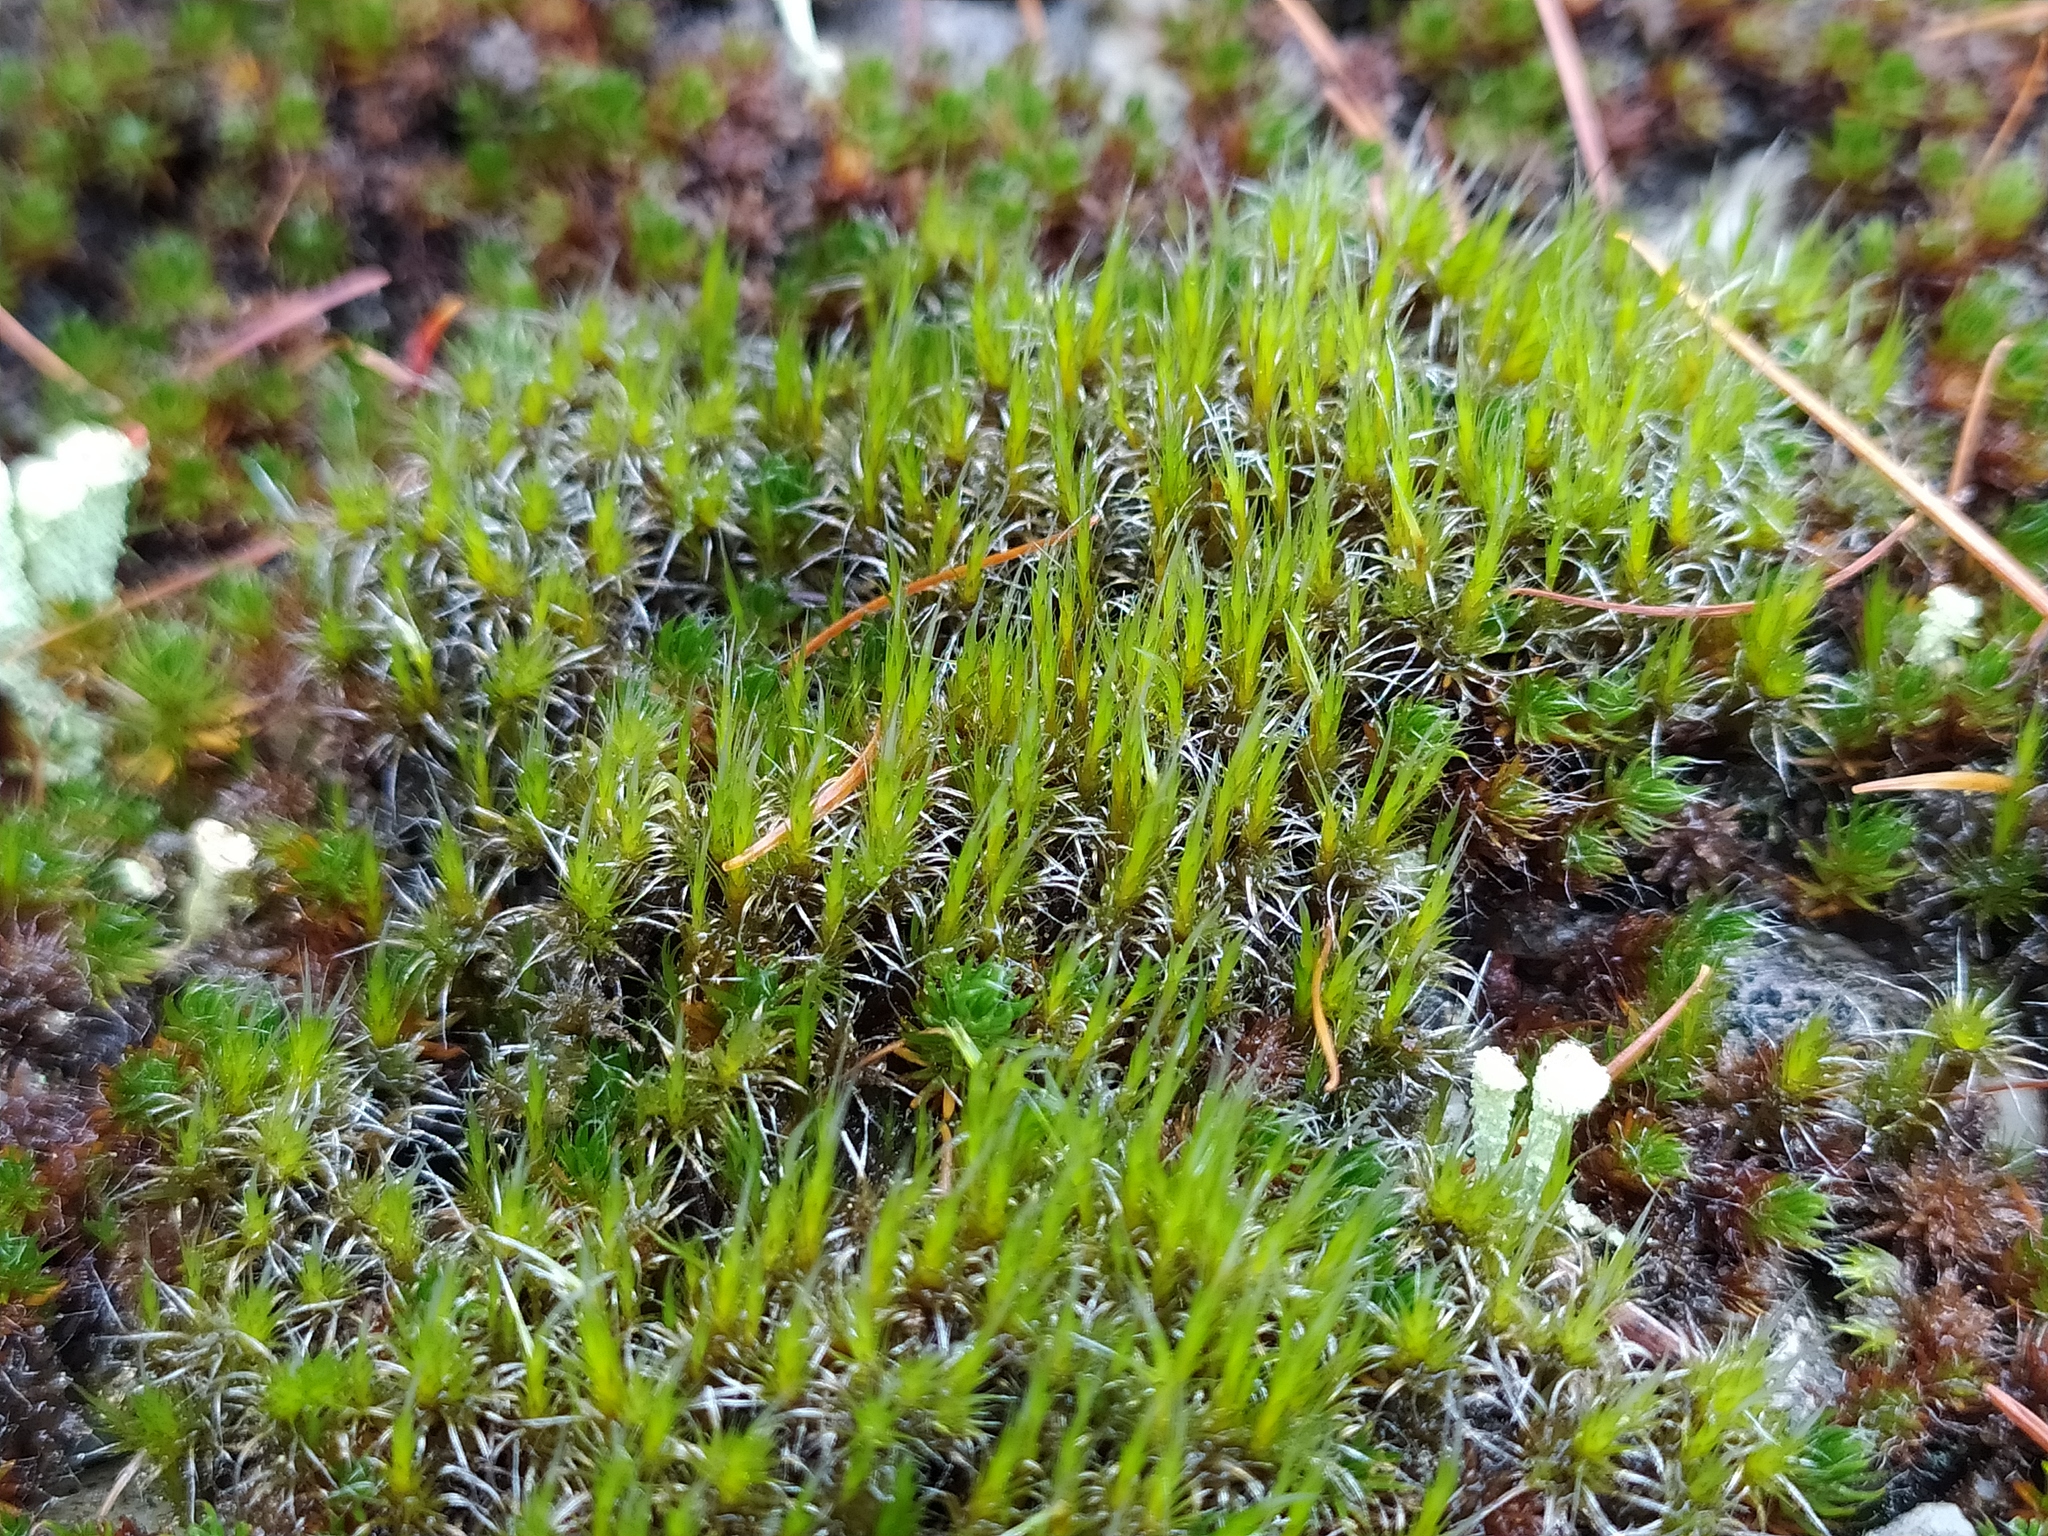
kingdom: Plantae
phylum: Bryophyta
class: Bryopsida
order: Dicranales
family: Leucobryaceae
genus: Campylopus
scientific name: Campylopus introflexus
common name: Heath star moss
